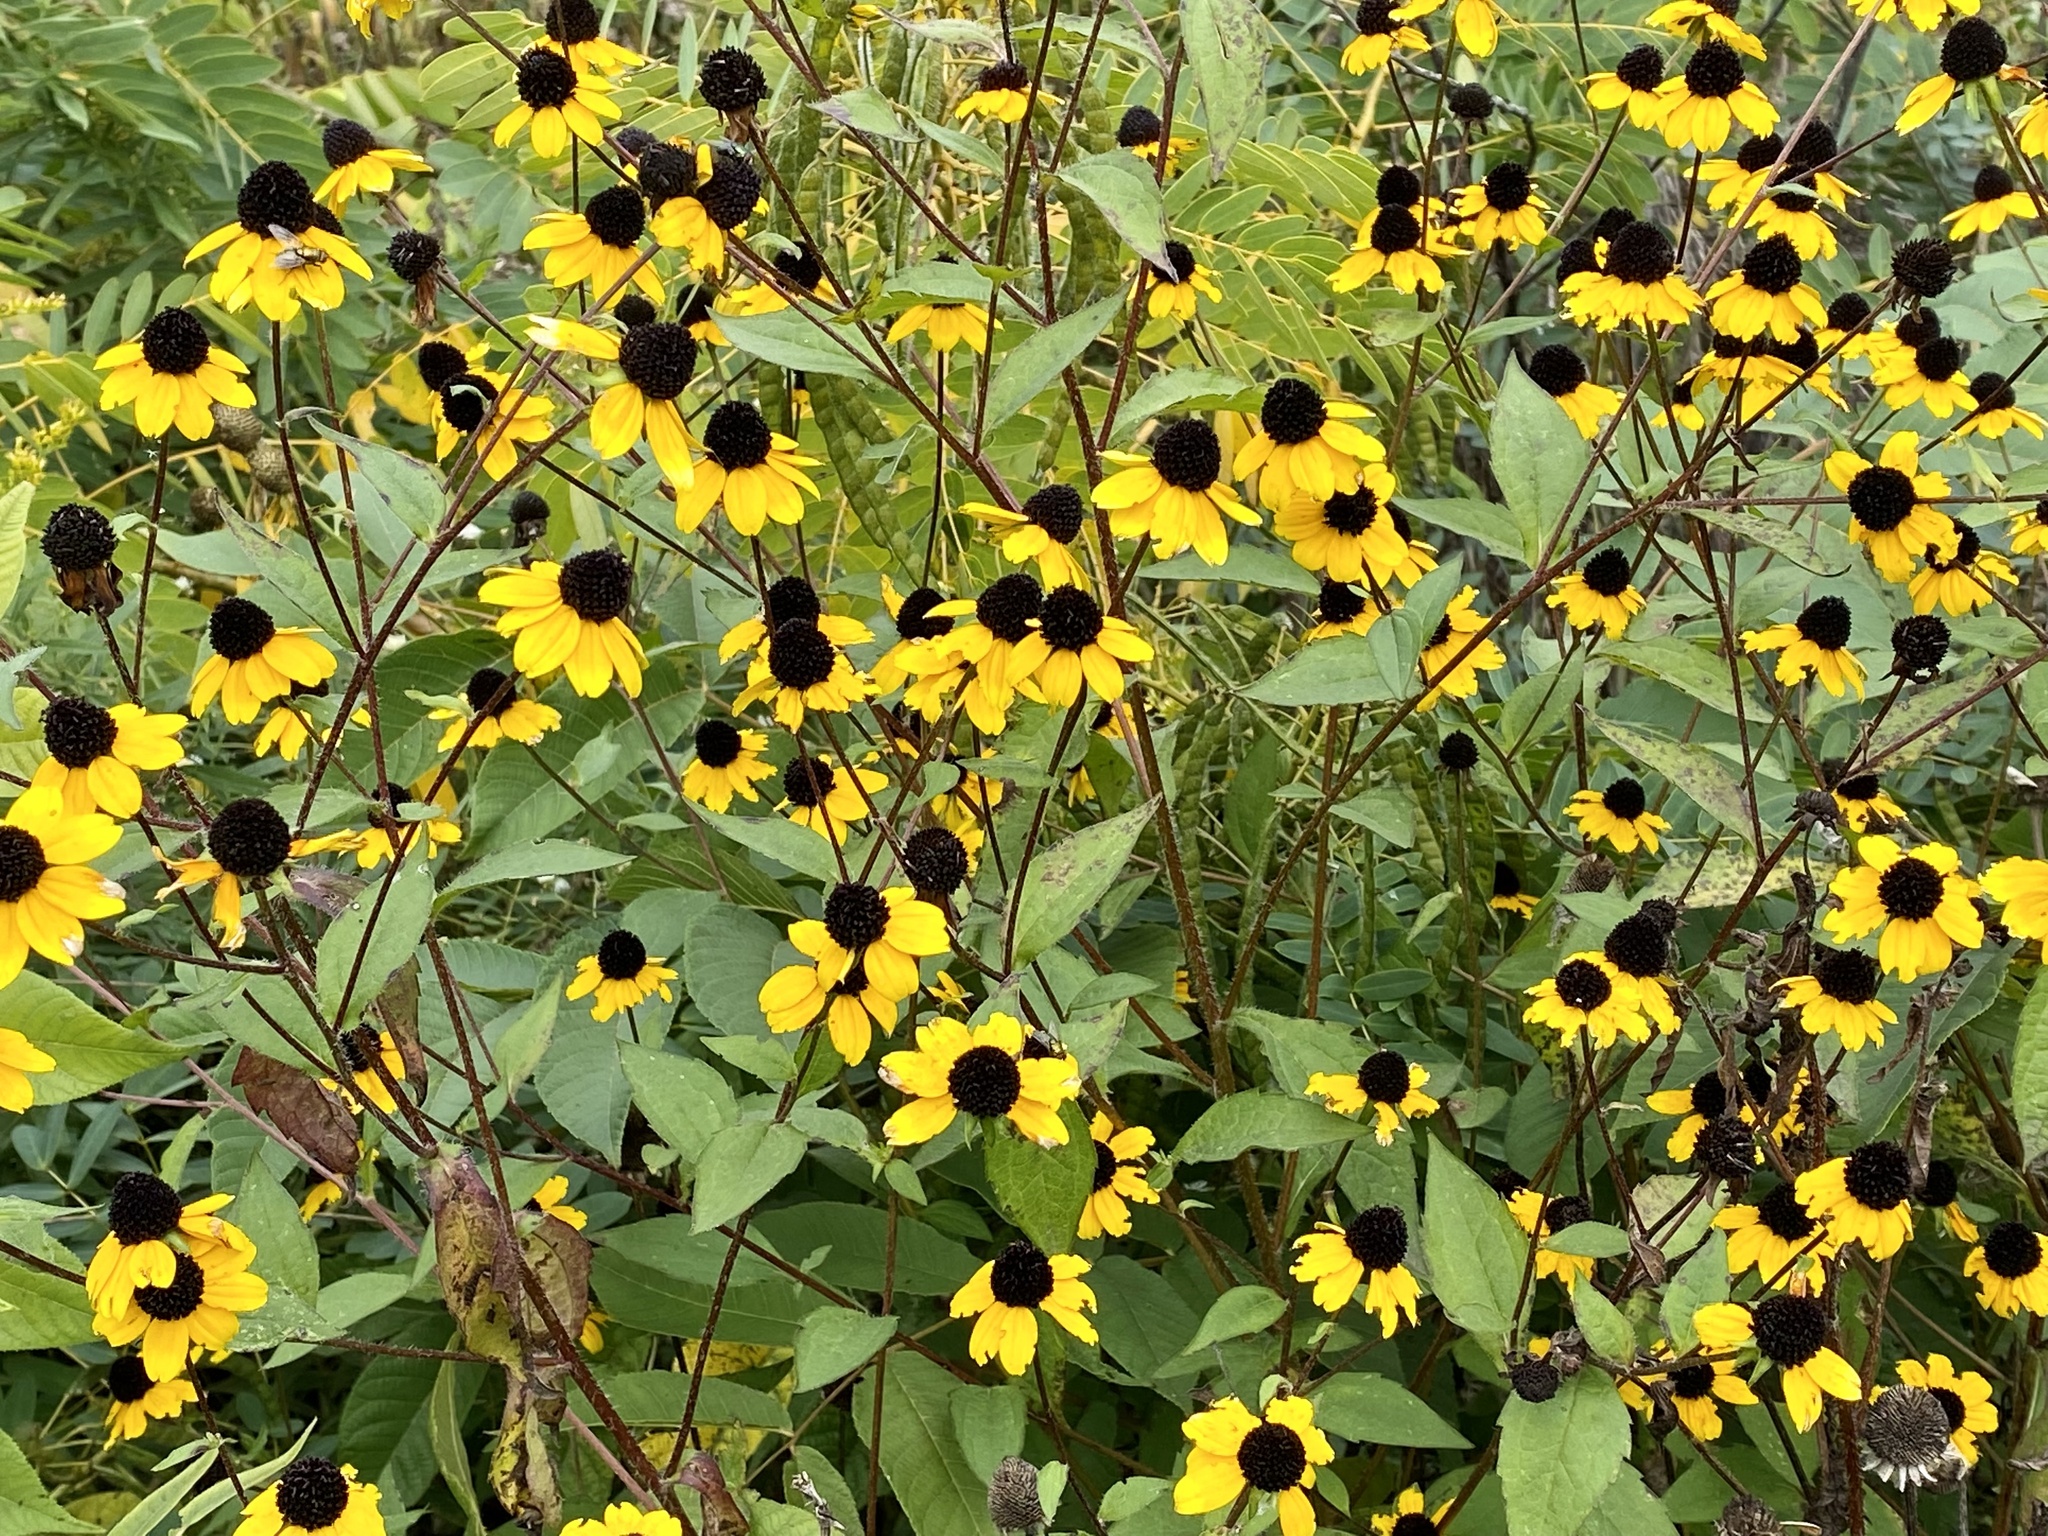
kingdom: Plantae
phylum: Tracheophyta
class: Magnoliopsida
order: Asterales
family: Asteraceae
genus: Rudbeckia
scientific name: Rudbeckia triloba
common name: Thin-leaved coneflower
